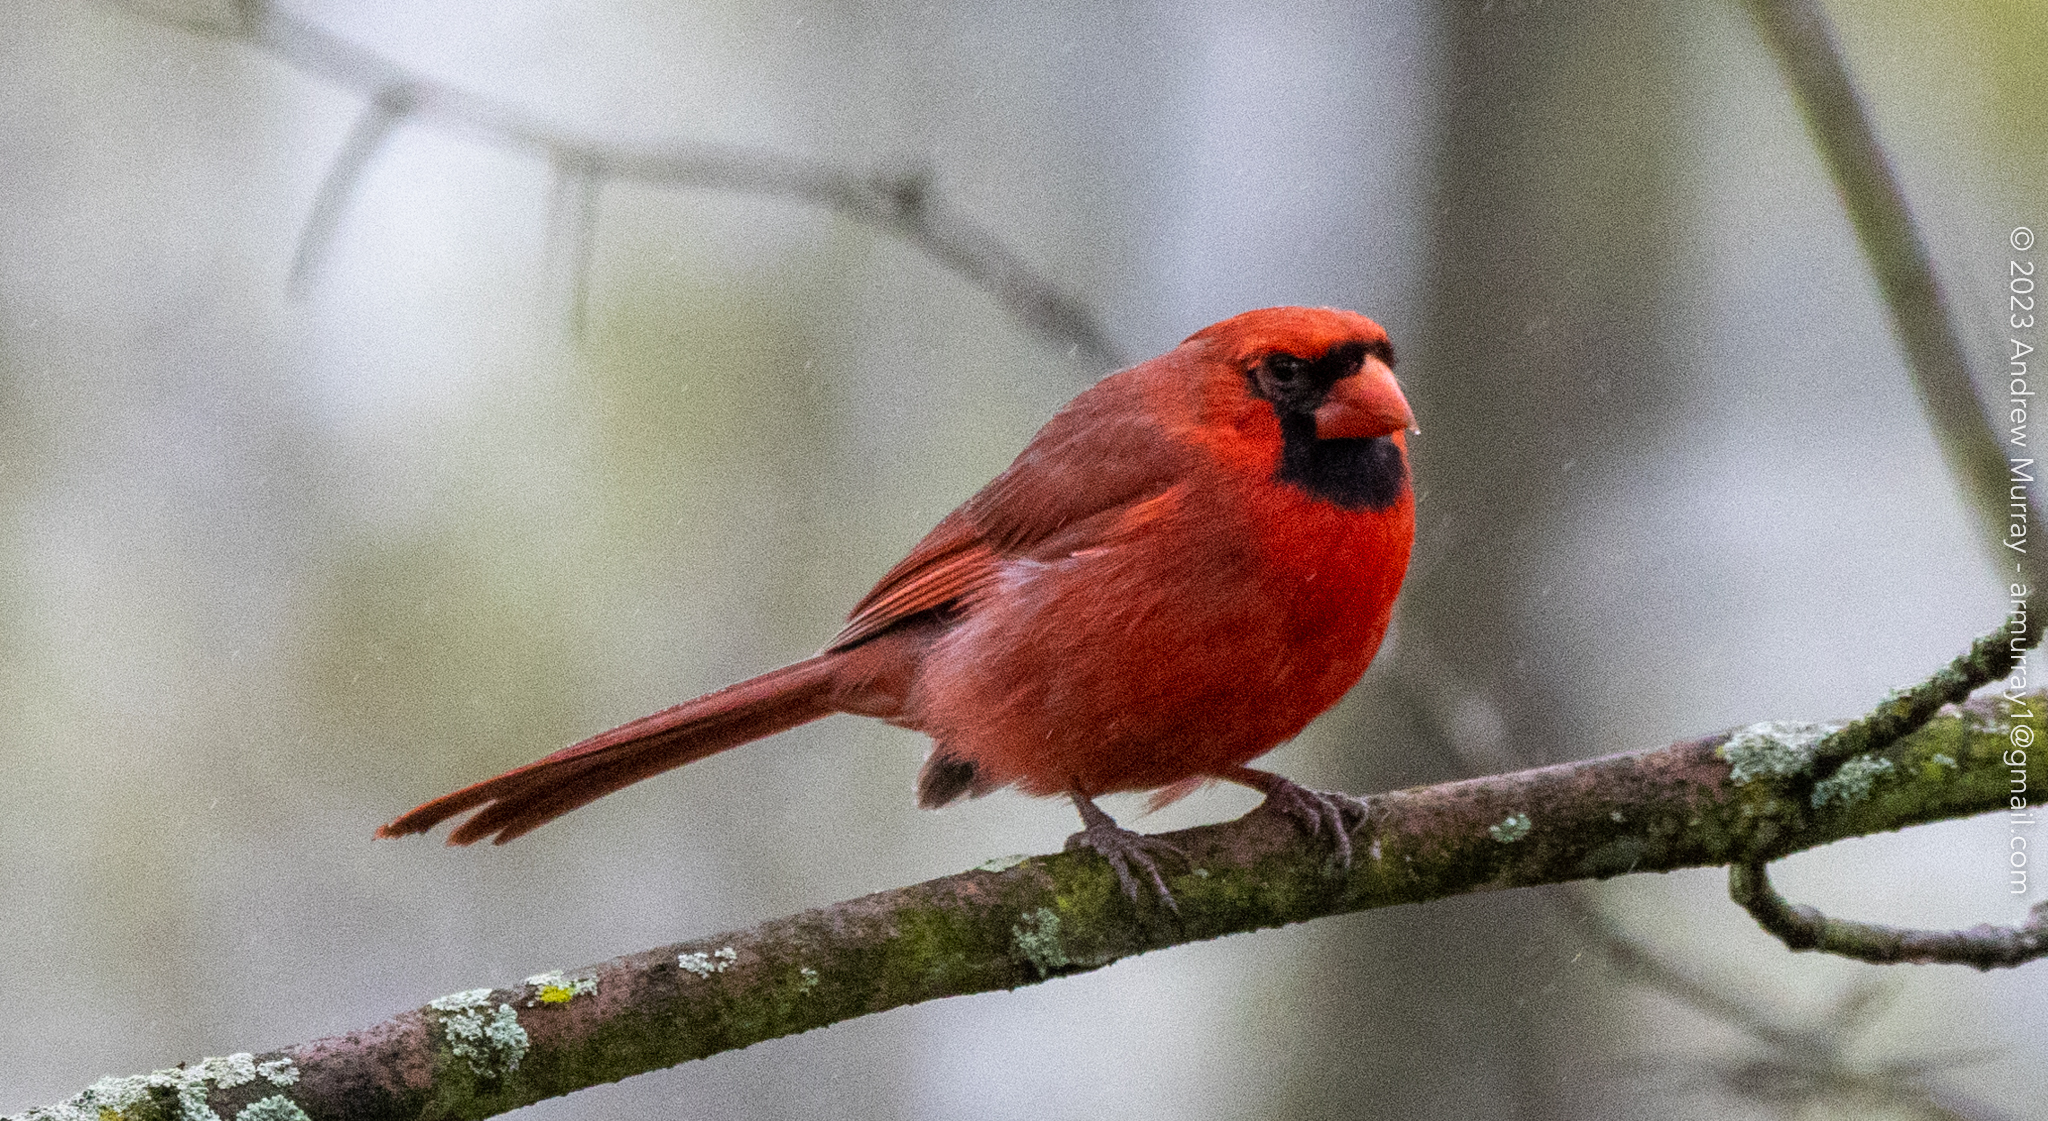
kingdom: Animalia
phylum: Chordata
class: Aves
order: Passeriformes
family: Cardinalidae
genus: Cardinalis
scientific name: Cardinalis cardinalis
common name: Northern cardinal
